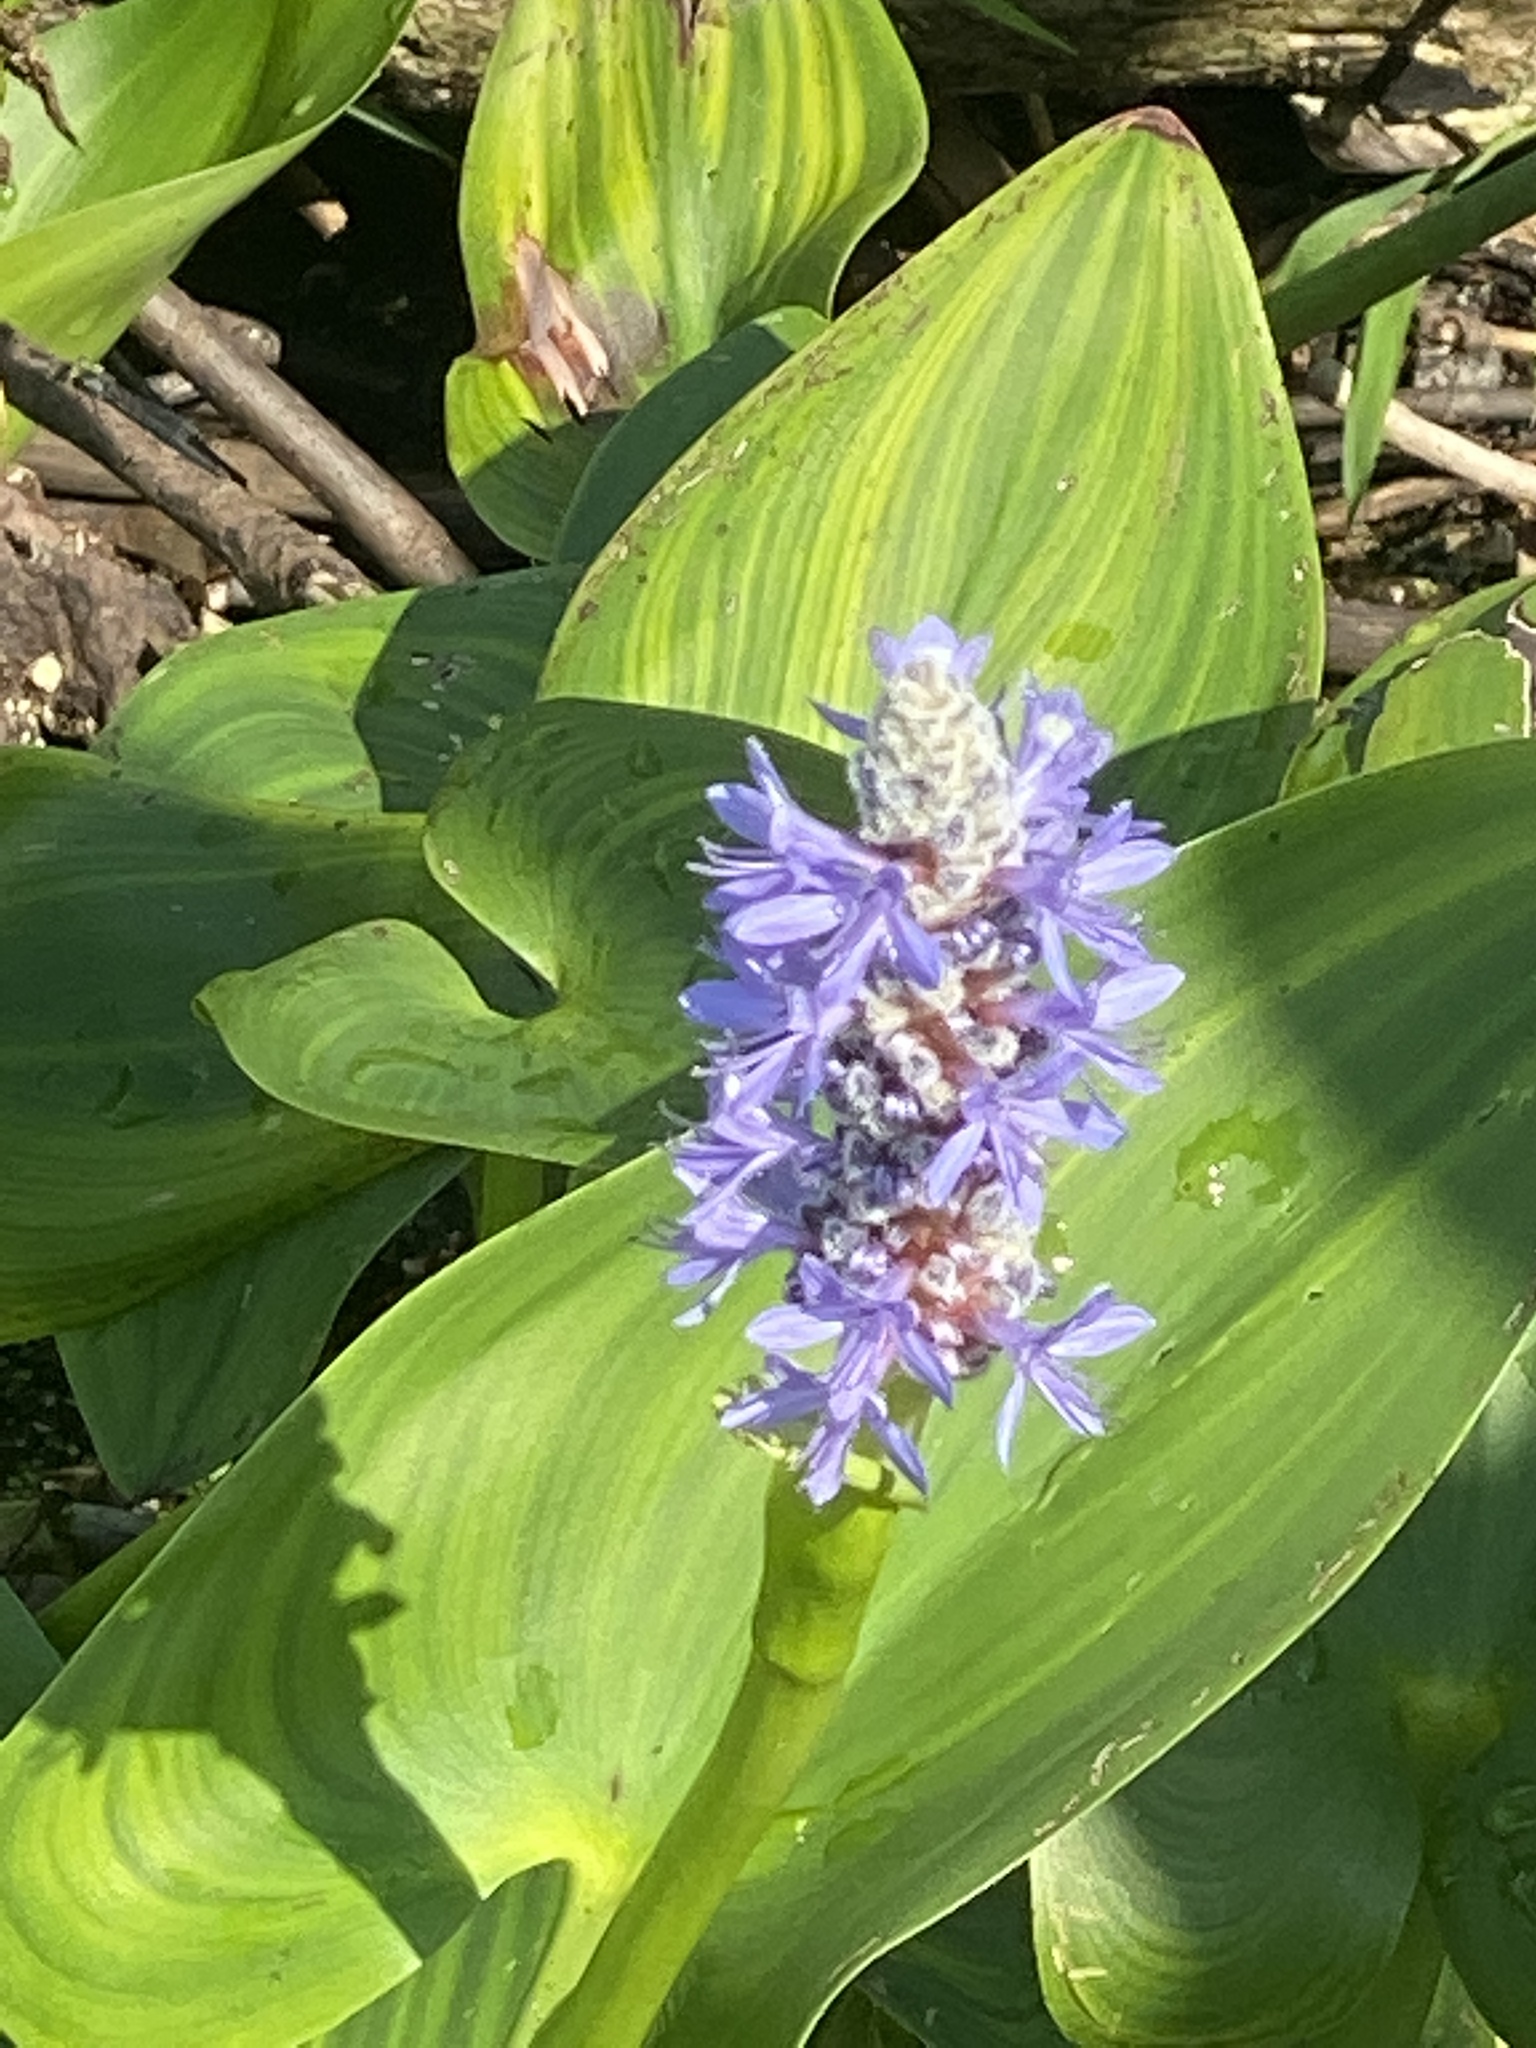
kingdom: Plantae
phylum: Tracheophyta
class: Liliopsida
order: Commelinales
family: Pontederiaceae
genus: Pontederia
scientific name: Pontederia cordata
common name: Pickerelweed
